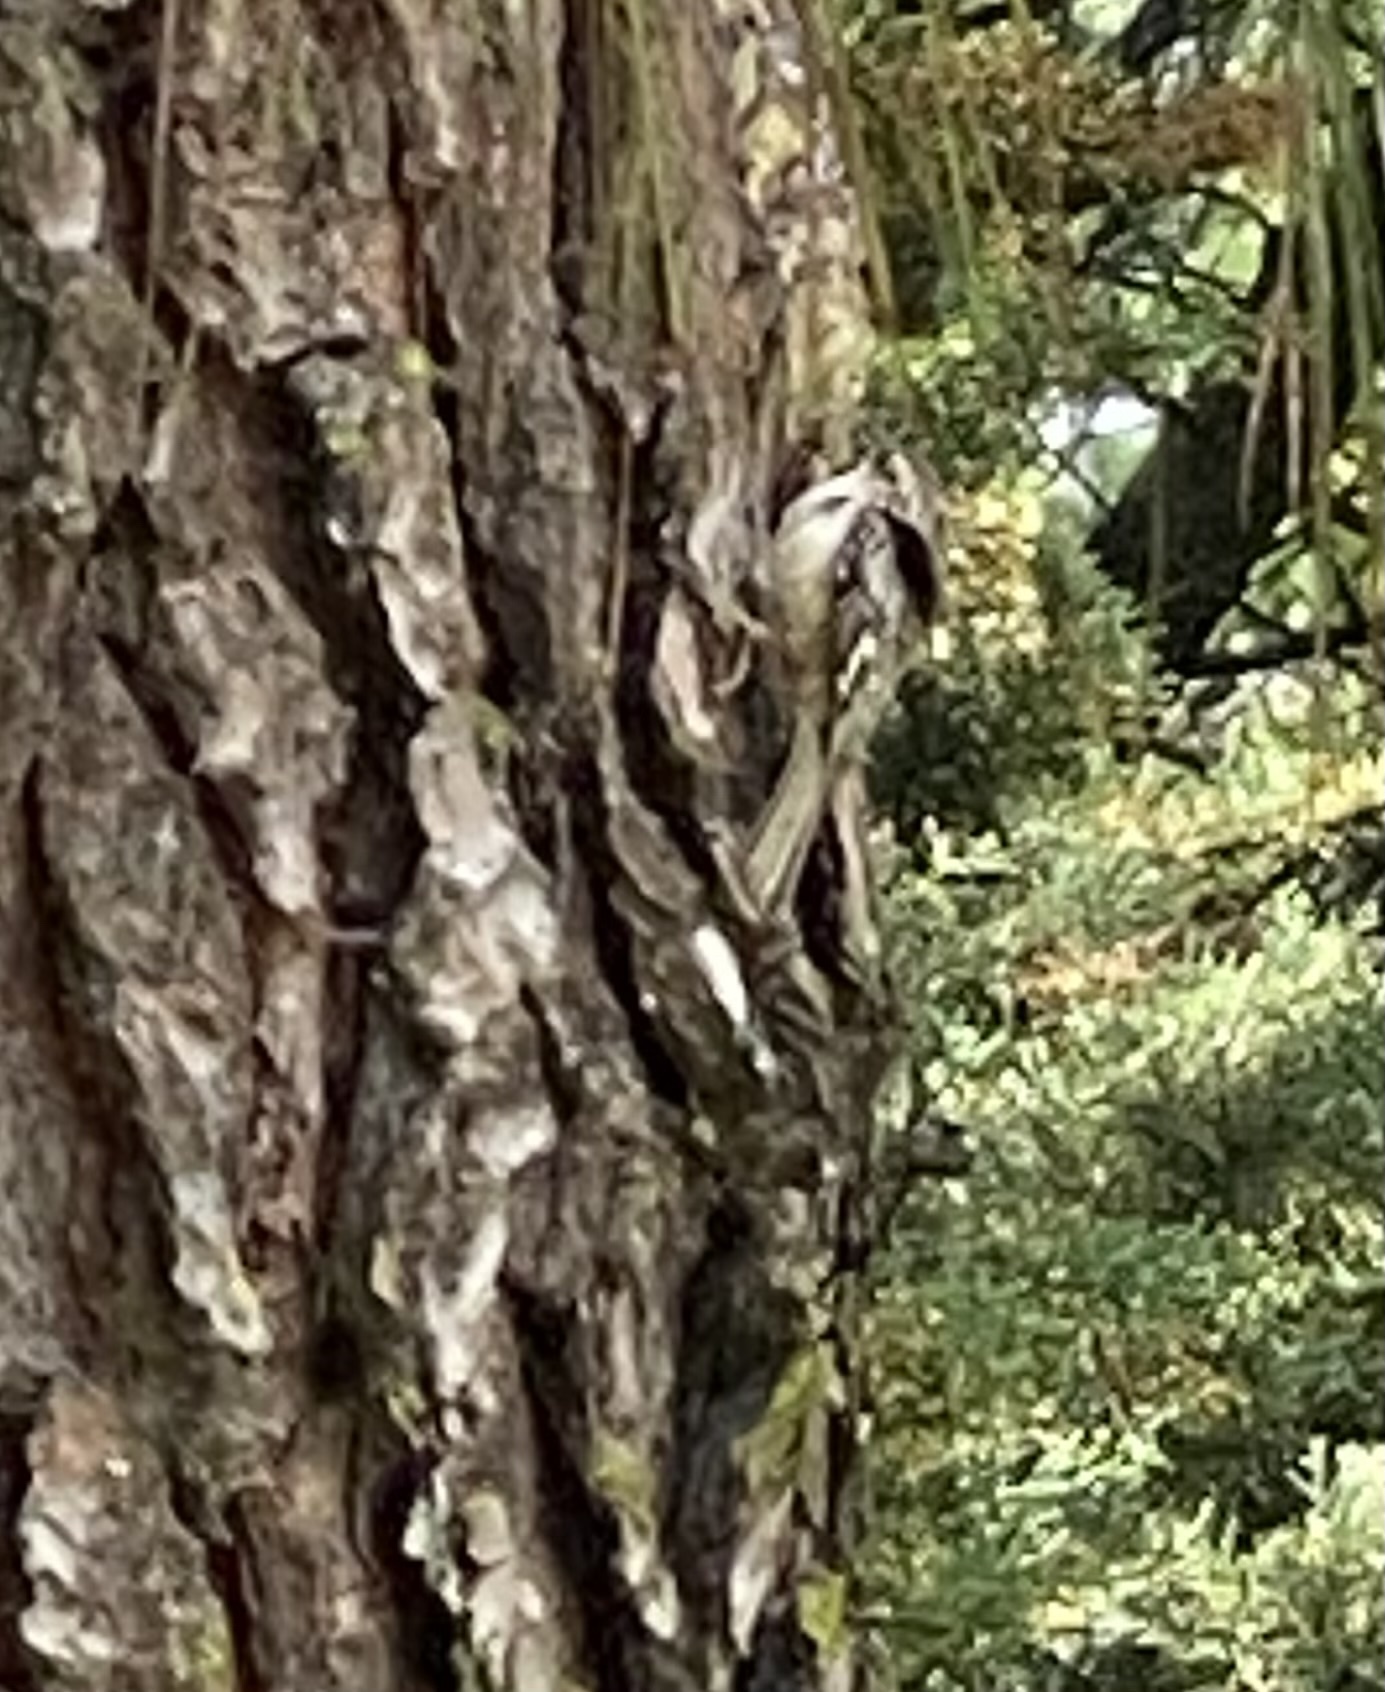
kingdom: Animalia
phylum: Chordata
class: Aves
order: Passeriformes
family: Certhiidae
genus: Certhia
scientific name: Certhia americana
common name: Brown creeper
